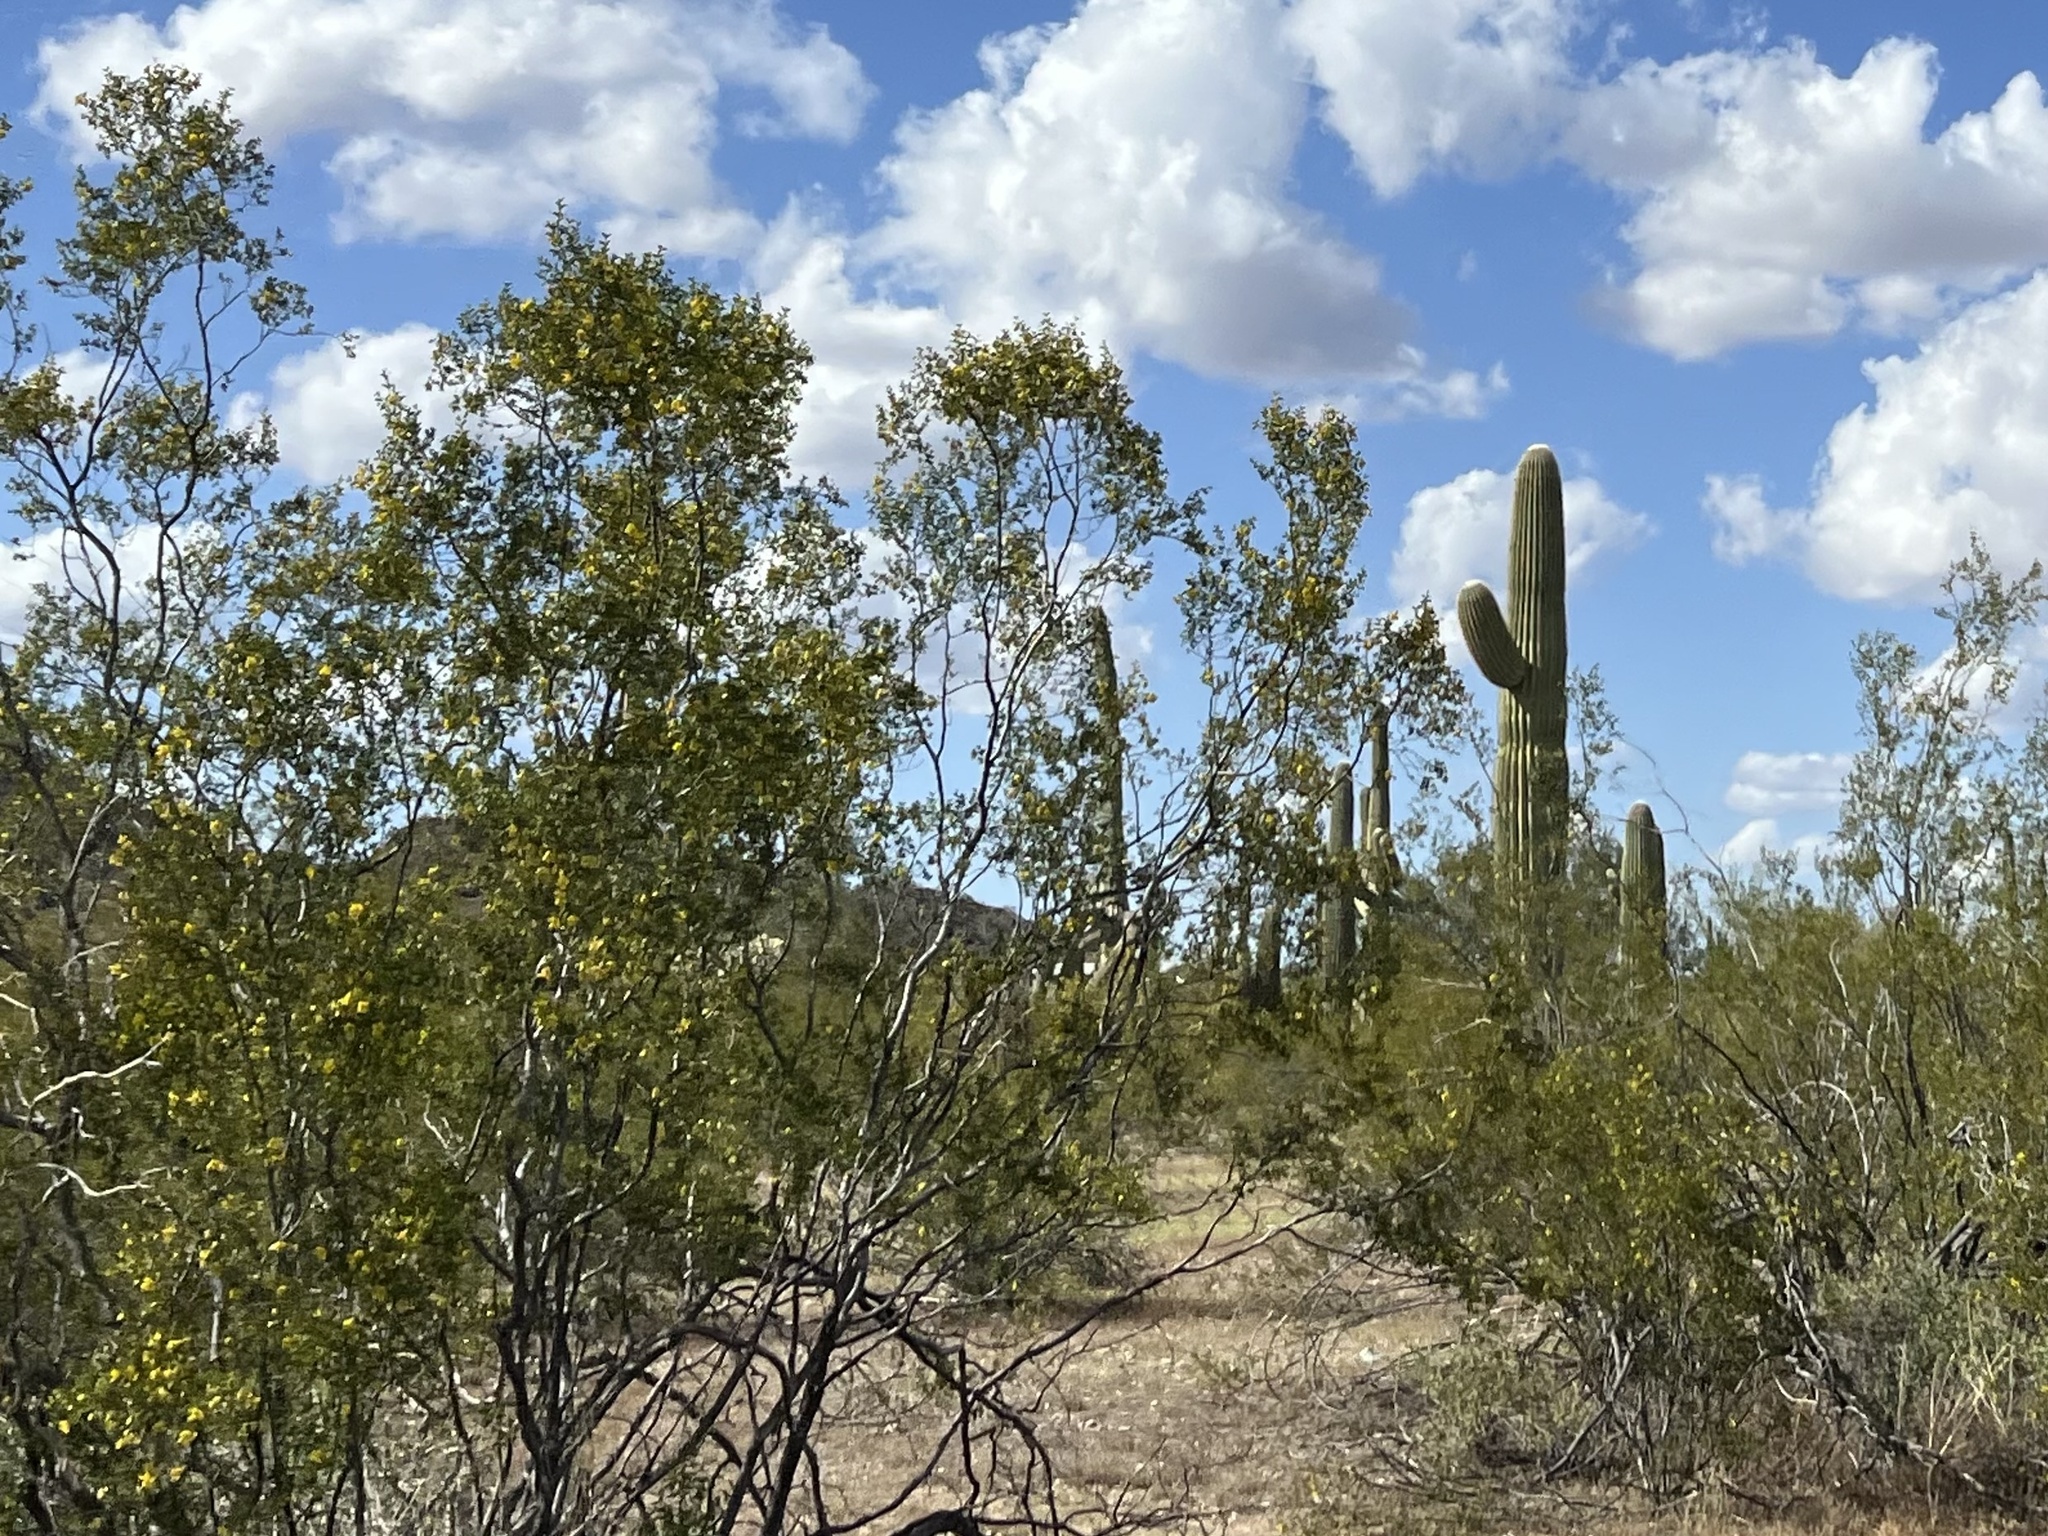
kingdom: Plantae
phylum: Tracheophyta
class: Magnoliopsida
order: Zygophyllales
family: Zygophyllaceae
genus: Larrea
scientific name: Larrea tridentata
